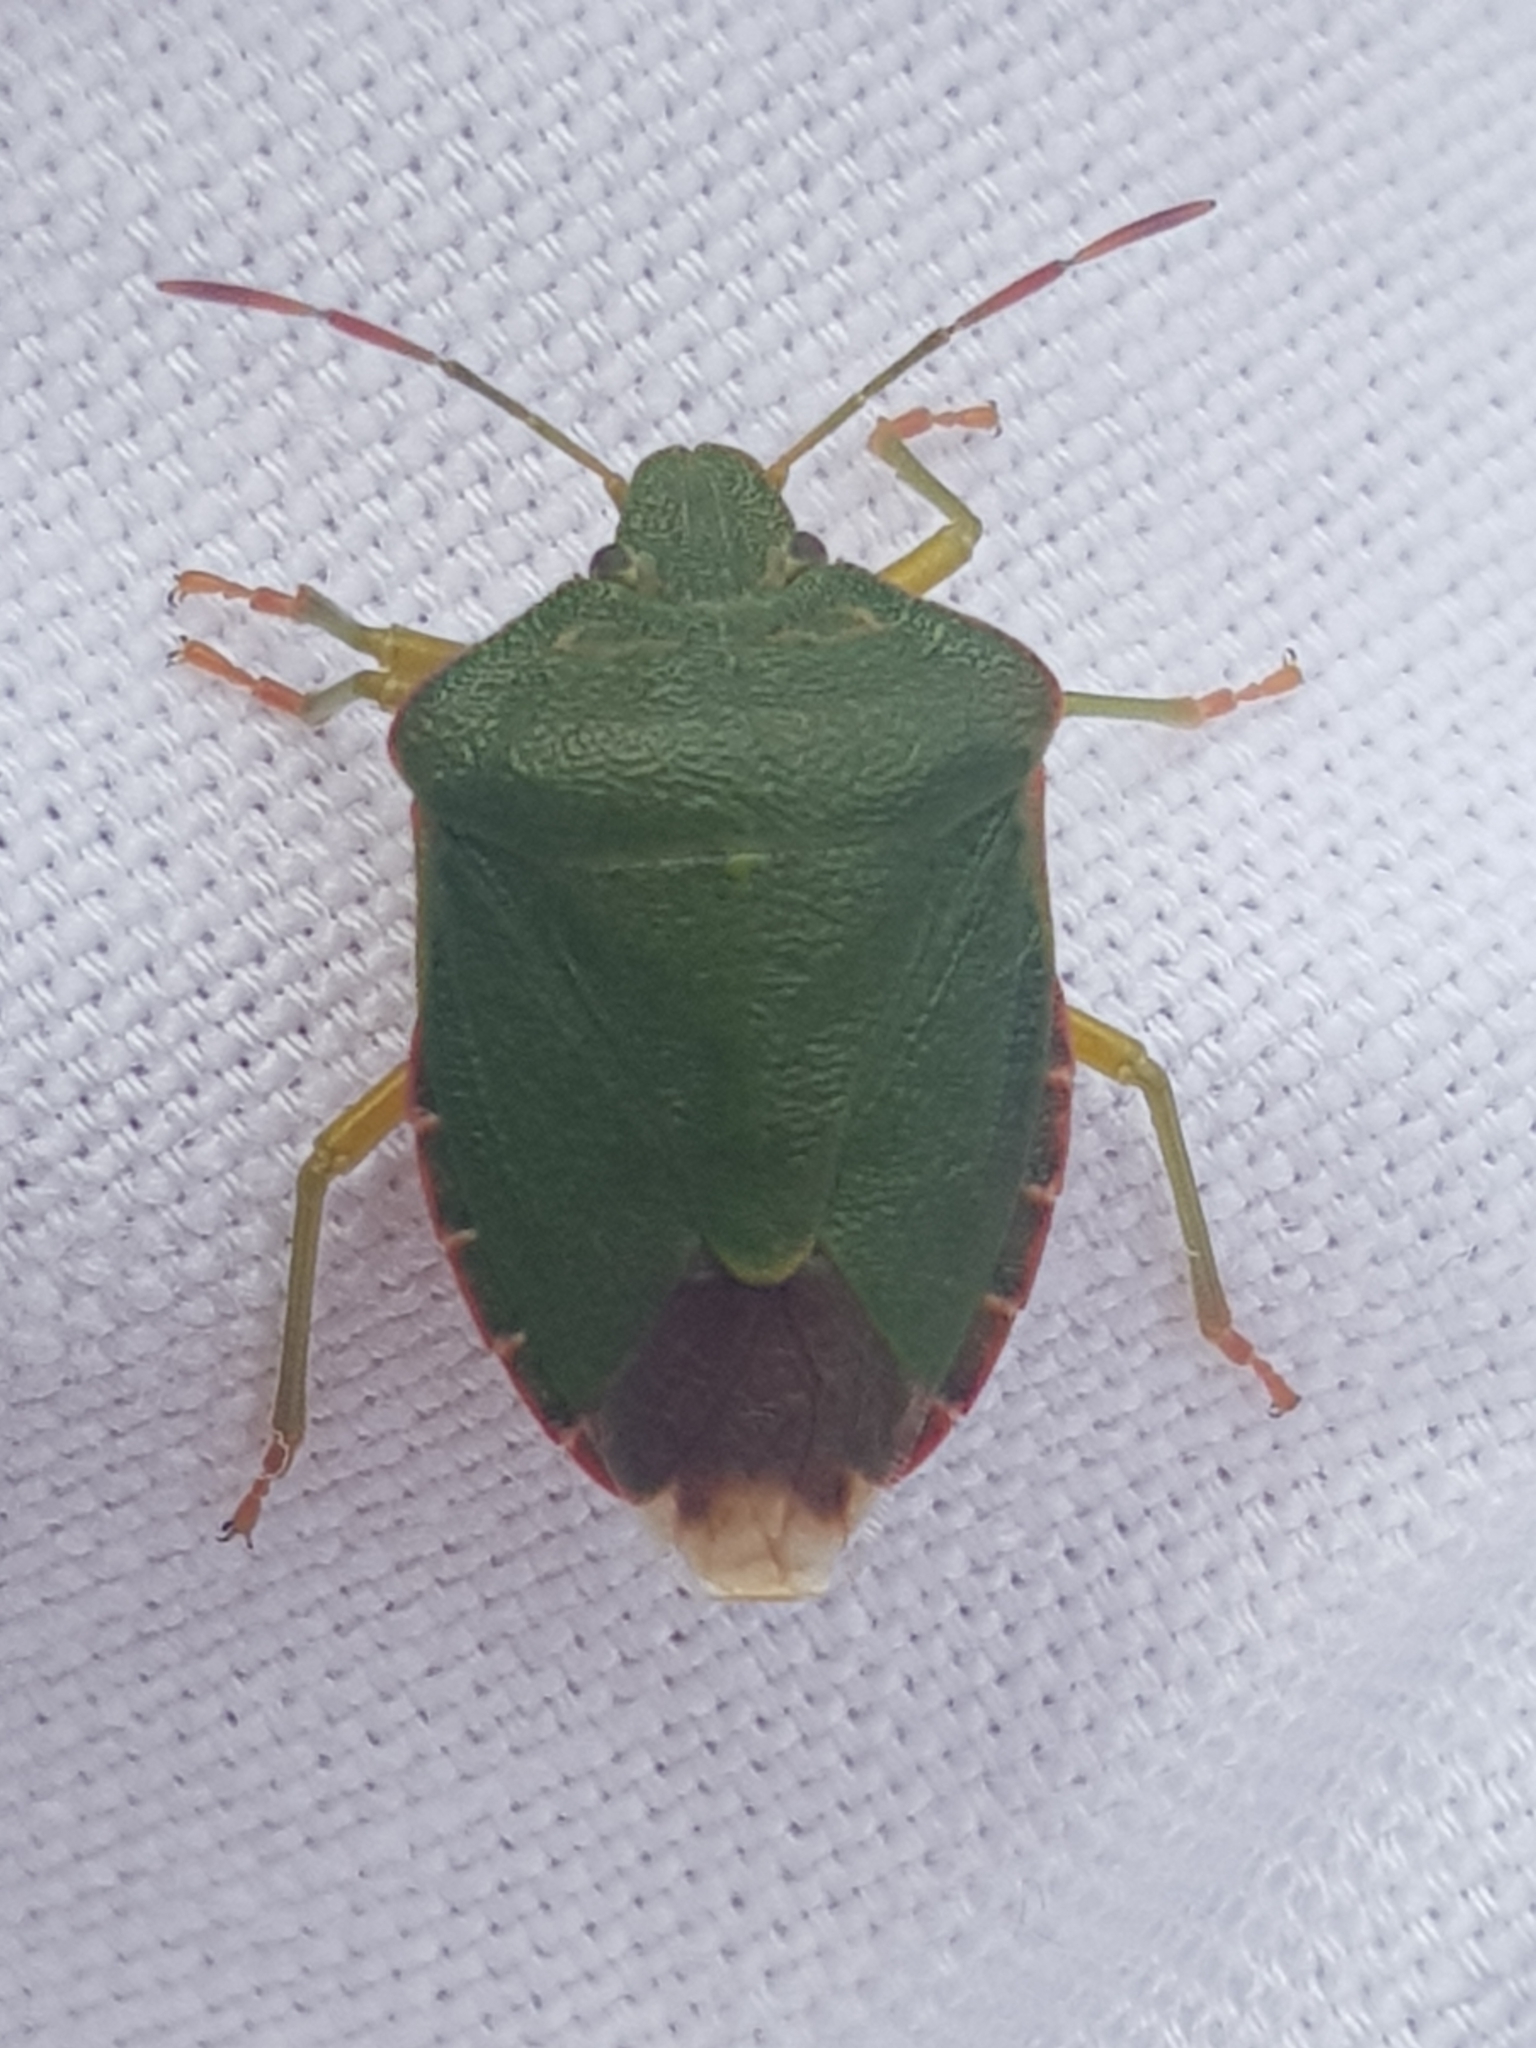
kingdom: Animalia
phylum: Arthropoda
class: Insecta
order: Hemiptera
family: Pentatomidae
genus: Palomena
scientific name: Palomena prasina
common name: Green shieldbug
